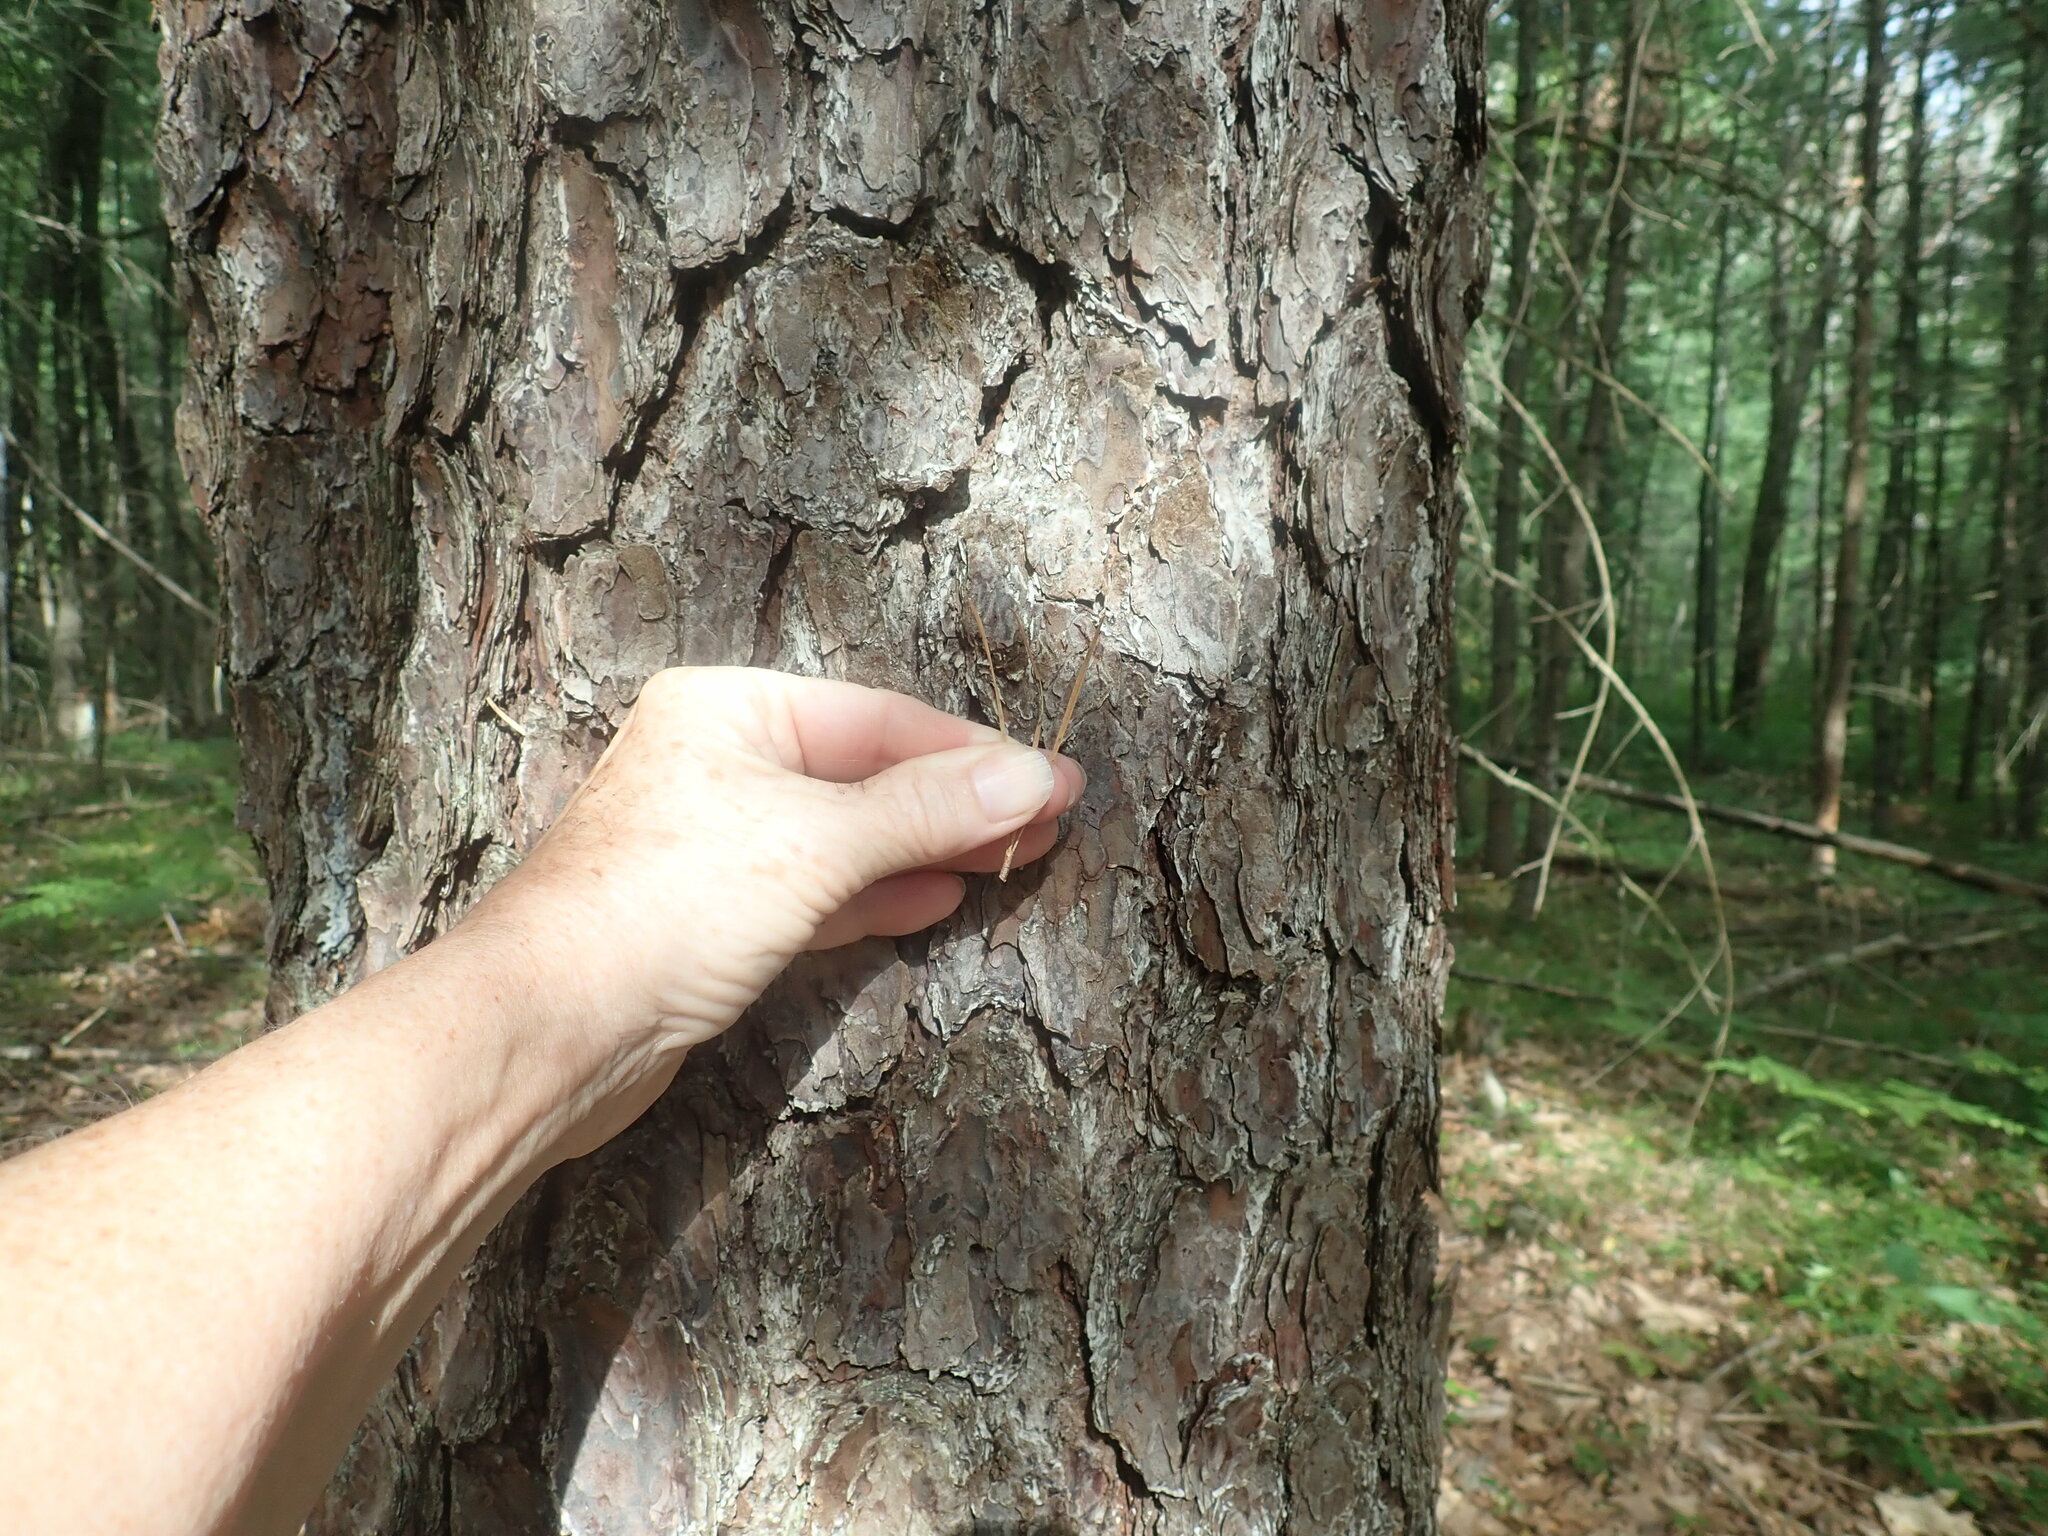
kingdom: Plantae
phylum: Tracheophyta
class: Pinopsida
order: Pinales
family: Pinaceae
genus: Pinus
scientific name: Pinus rigida
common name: Pitch pine
